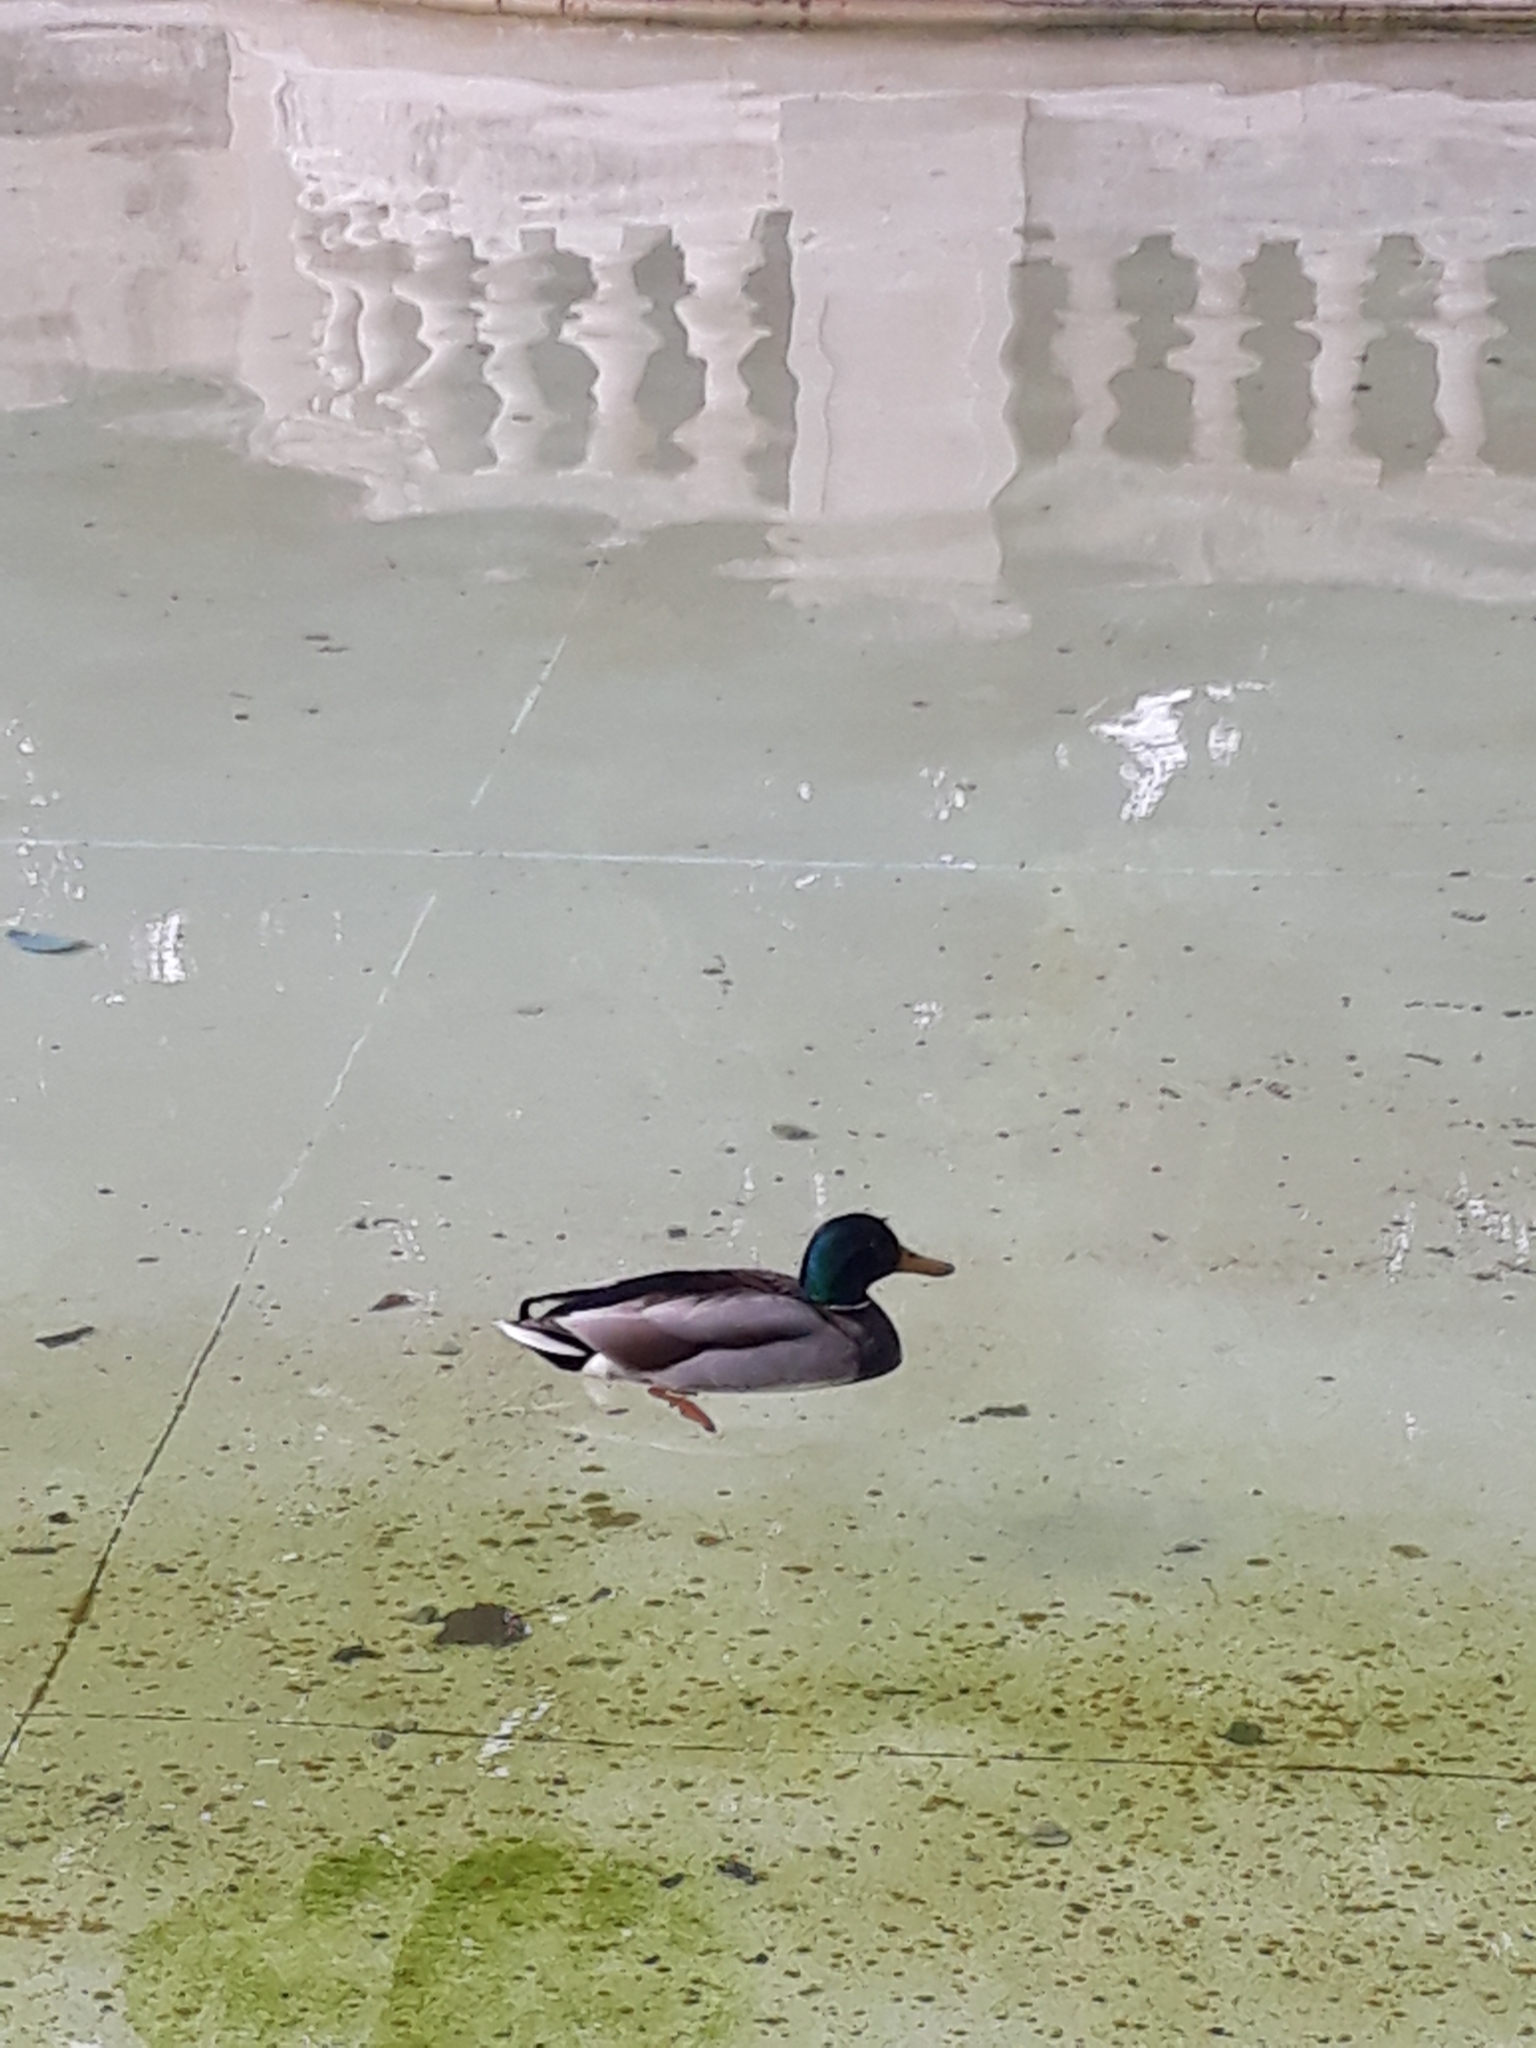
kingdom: Animalia
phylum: Chordata
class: Aves
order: Anseriformes
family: Anatidae
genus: Anas
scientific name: Anas platyrhynchos
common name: Mallard
